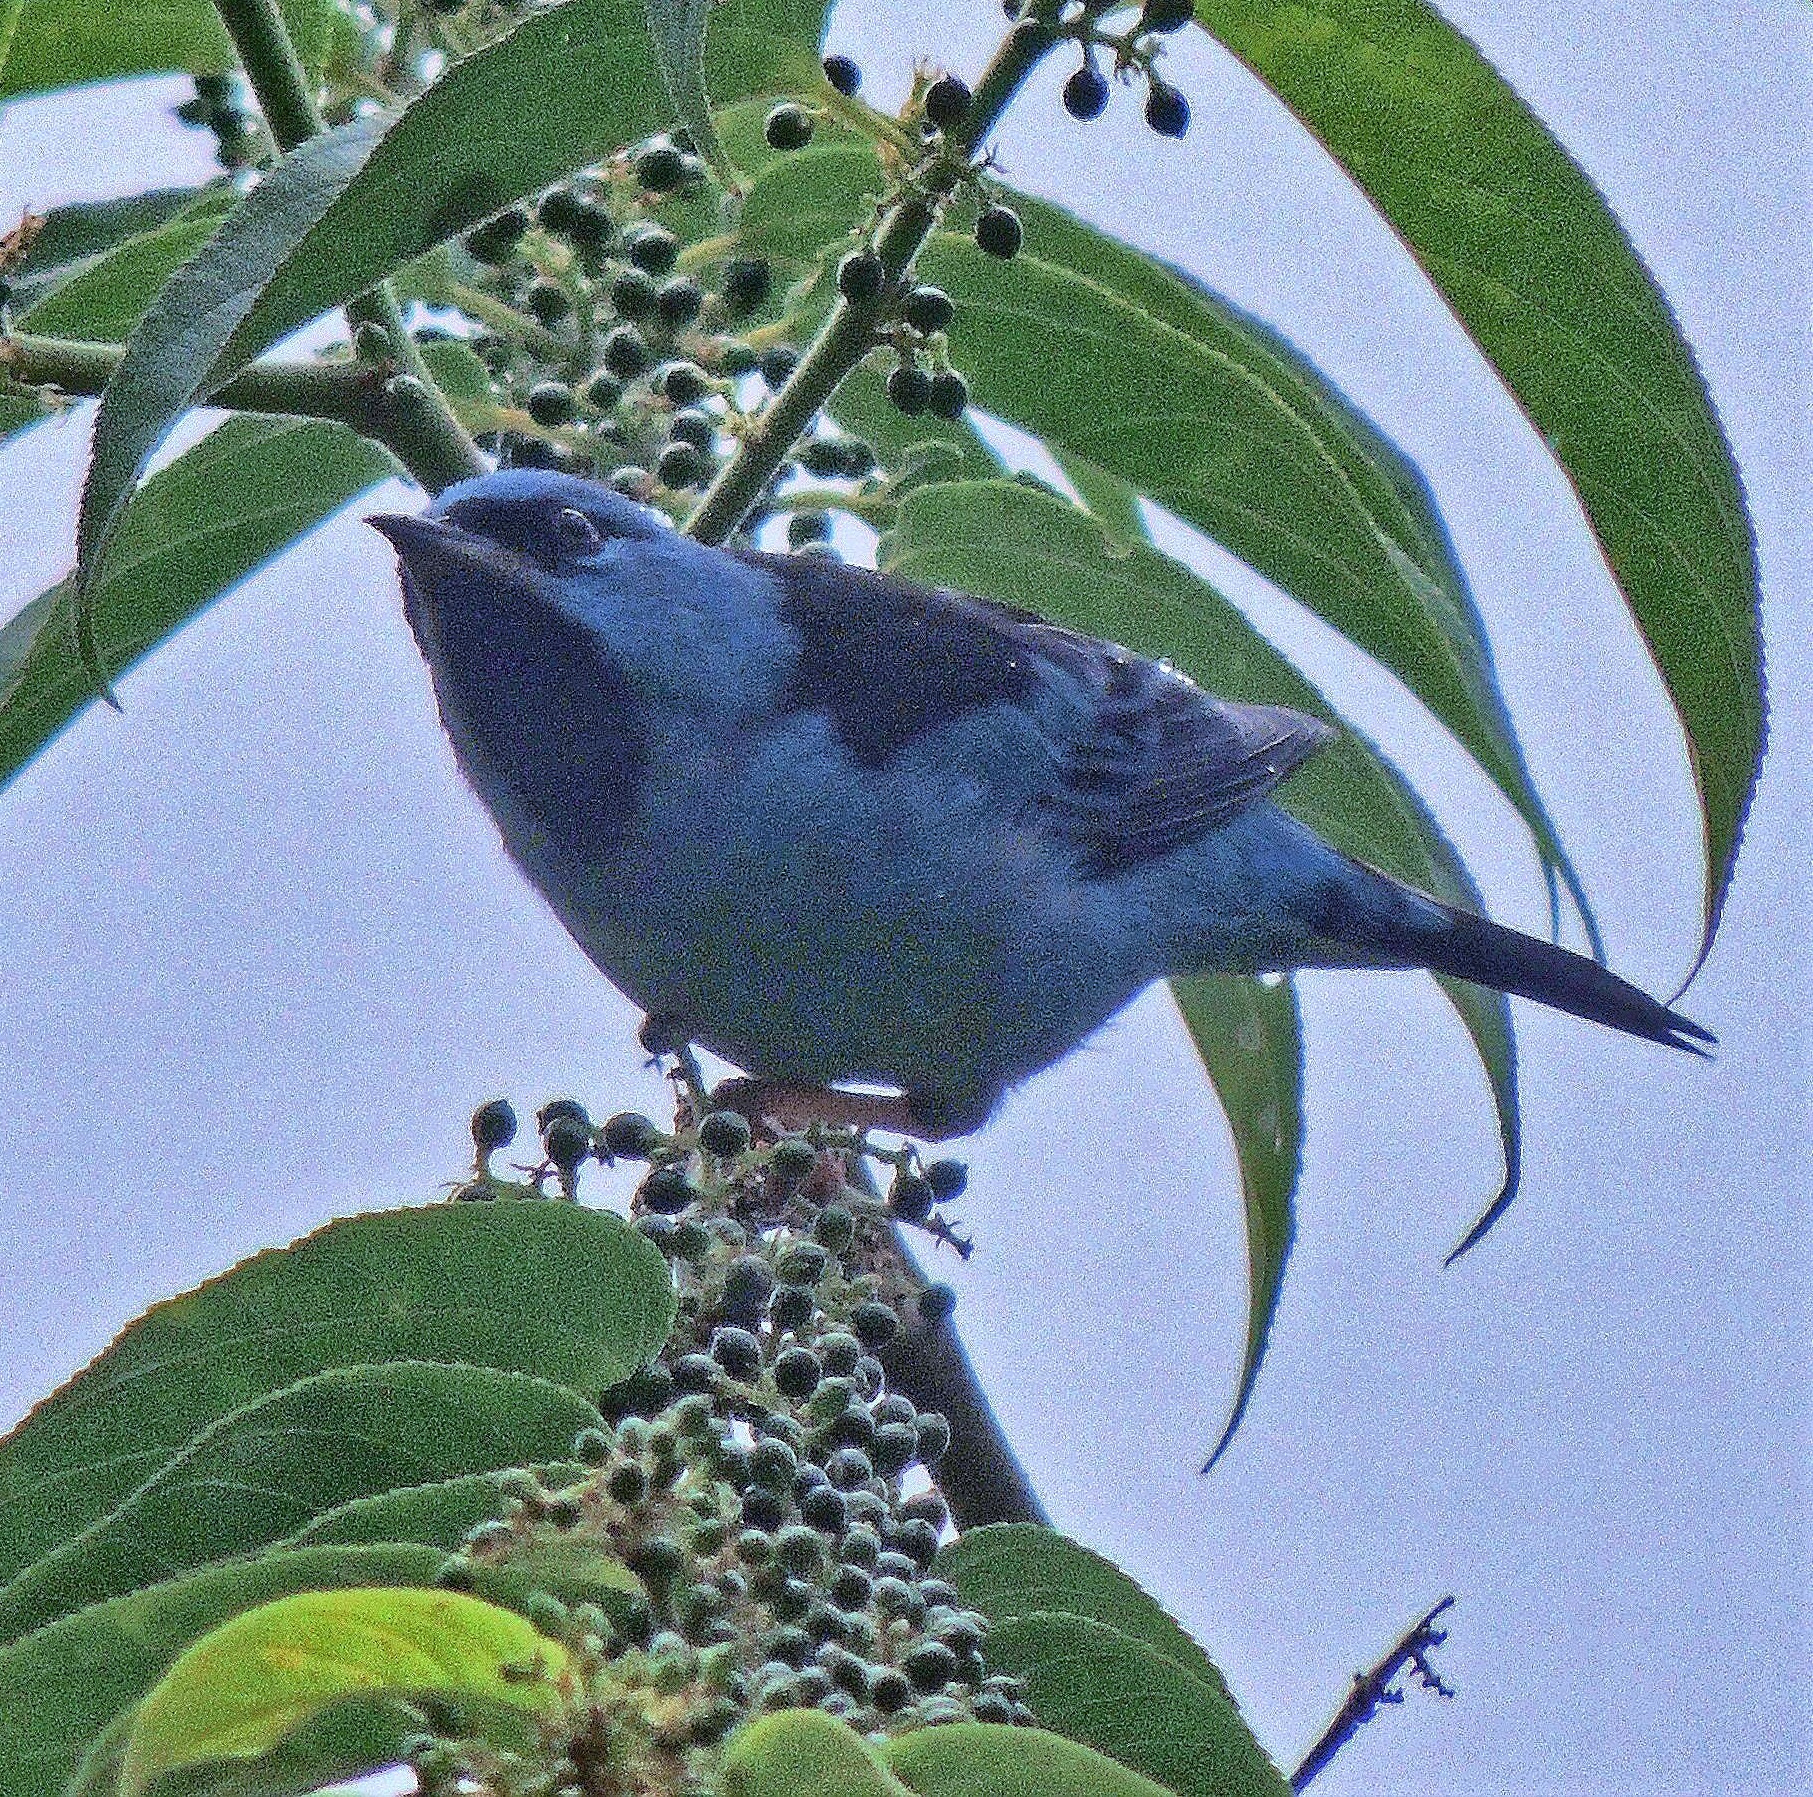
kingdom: Animalia
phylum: Chordata
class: Aves
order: Passeriformes
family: Thraupidae
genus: Dacnis
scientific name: Dacnis cayana
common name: Blue dacnis
